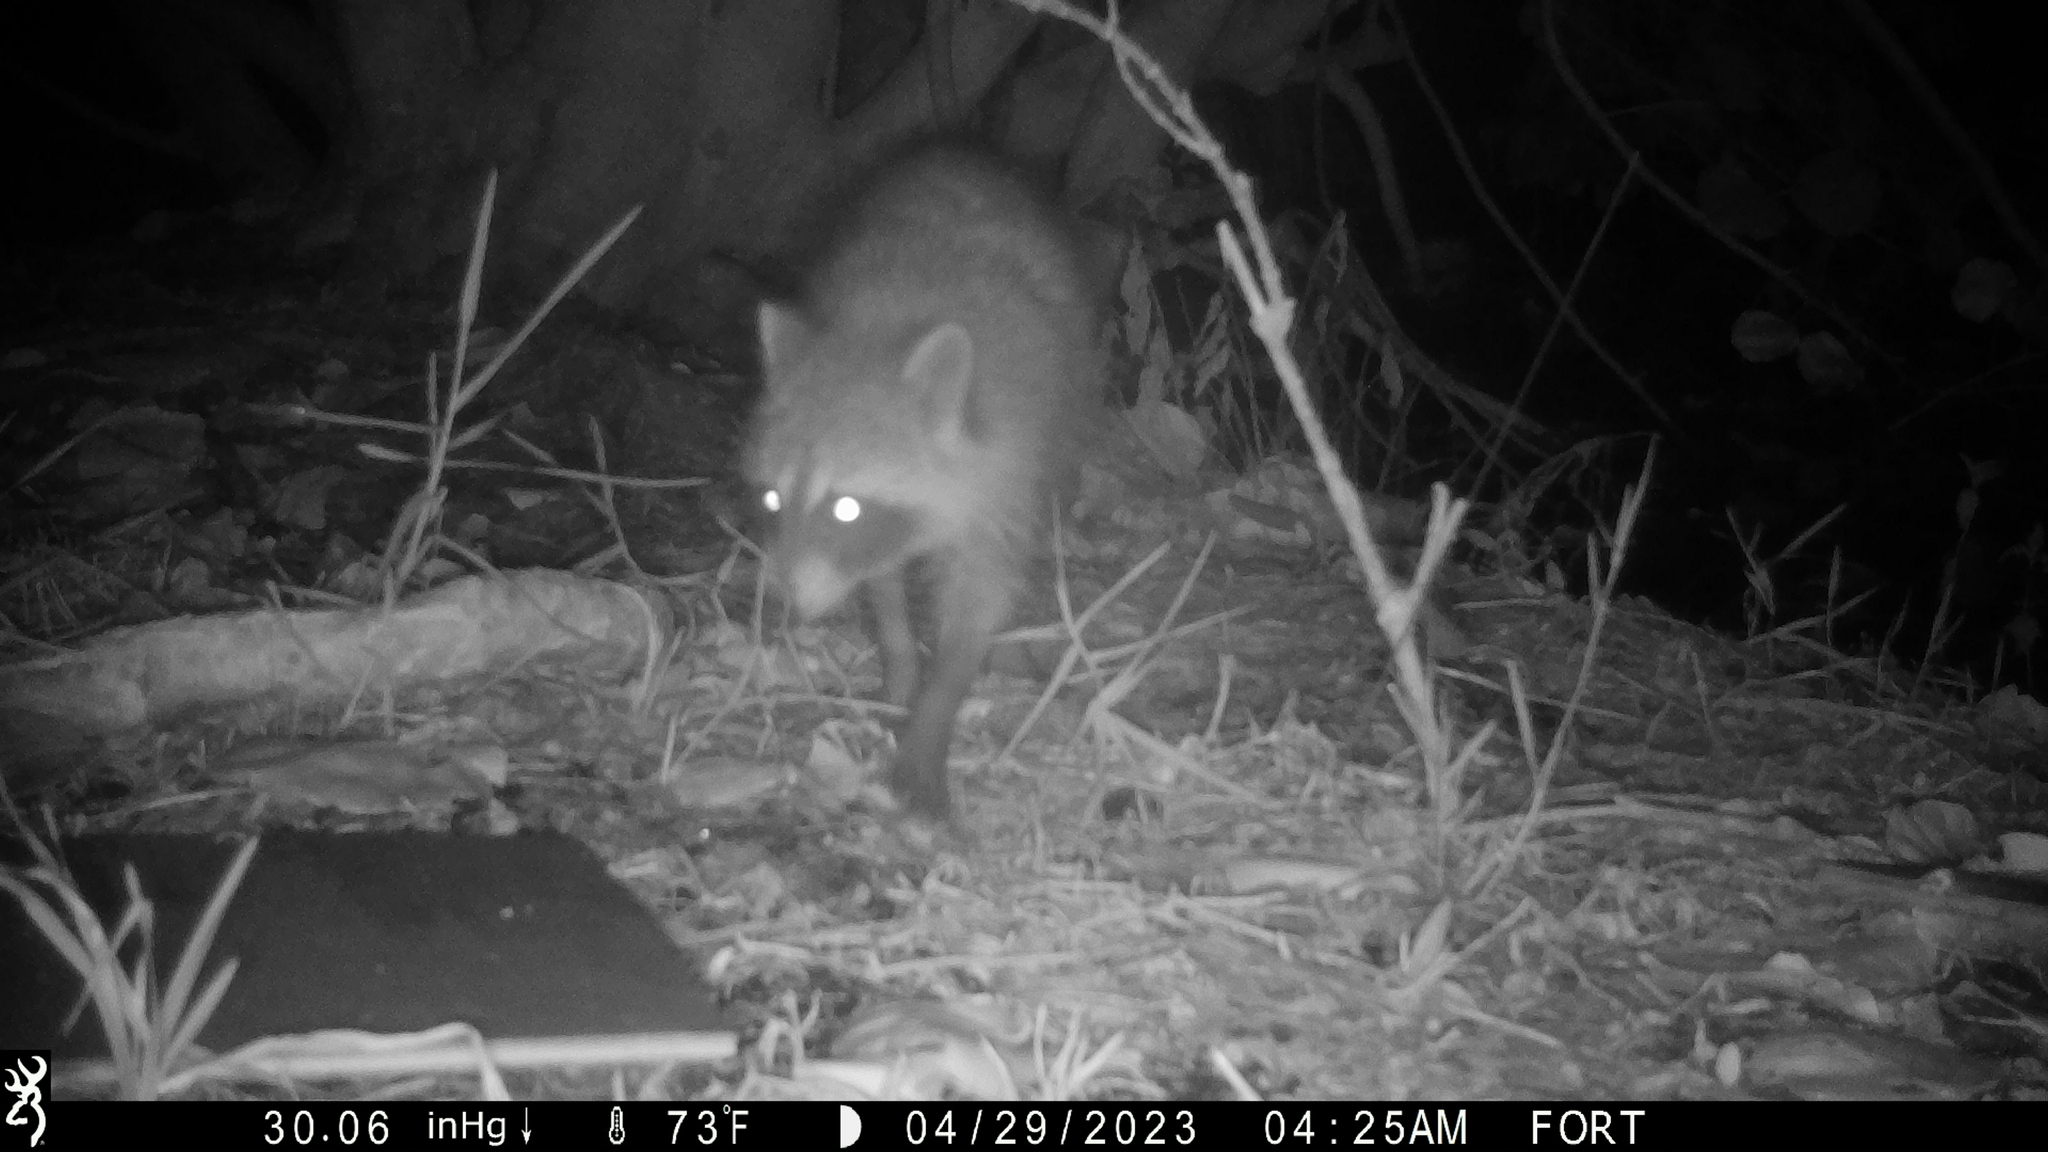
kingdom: Animalia
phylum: Chordata
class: Mammalia
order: Carnivora
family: Procyonidae
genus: Procyon
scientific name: Procyon lotor
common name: Raccoon
